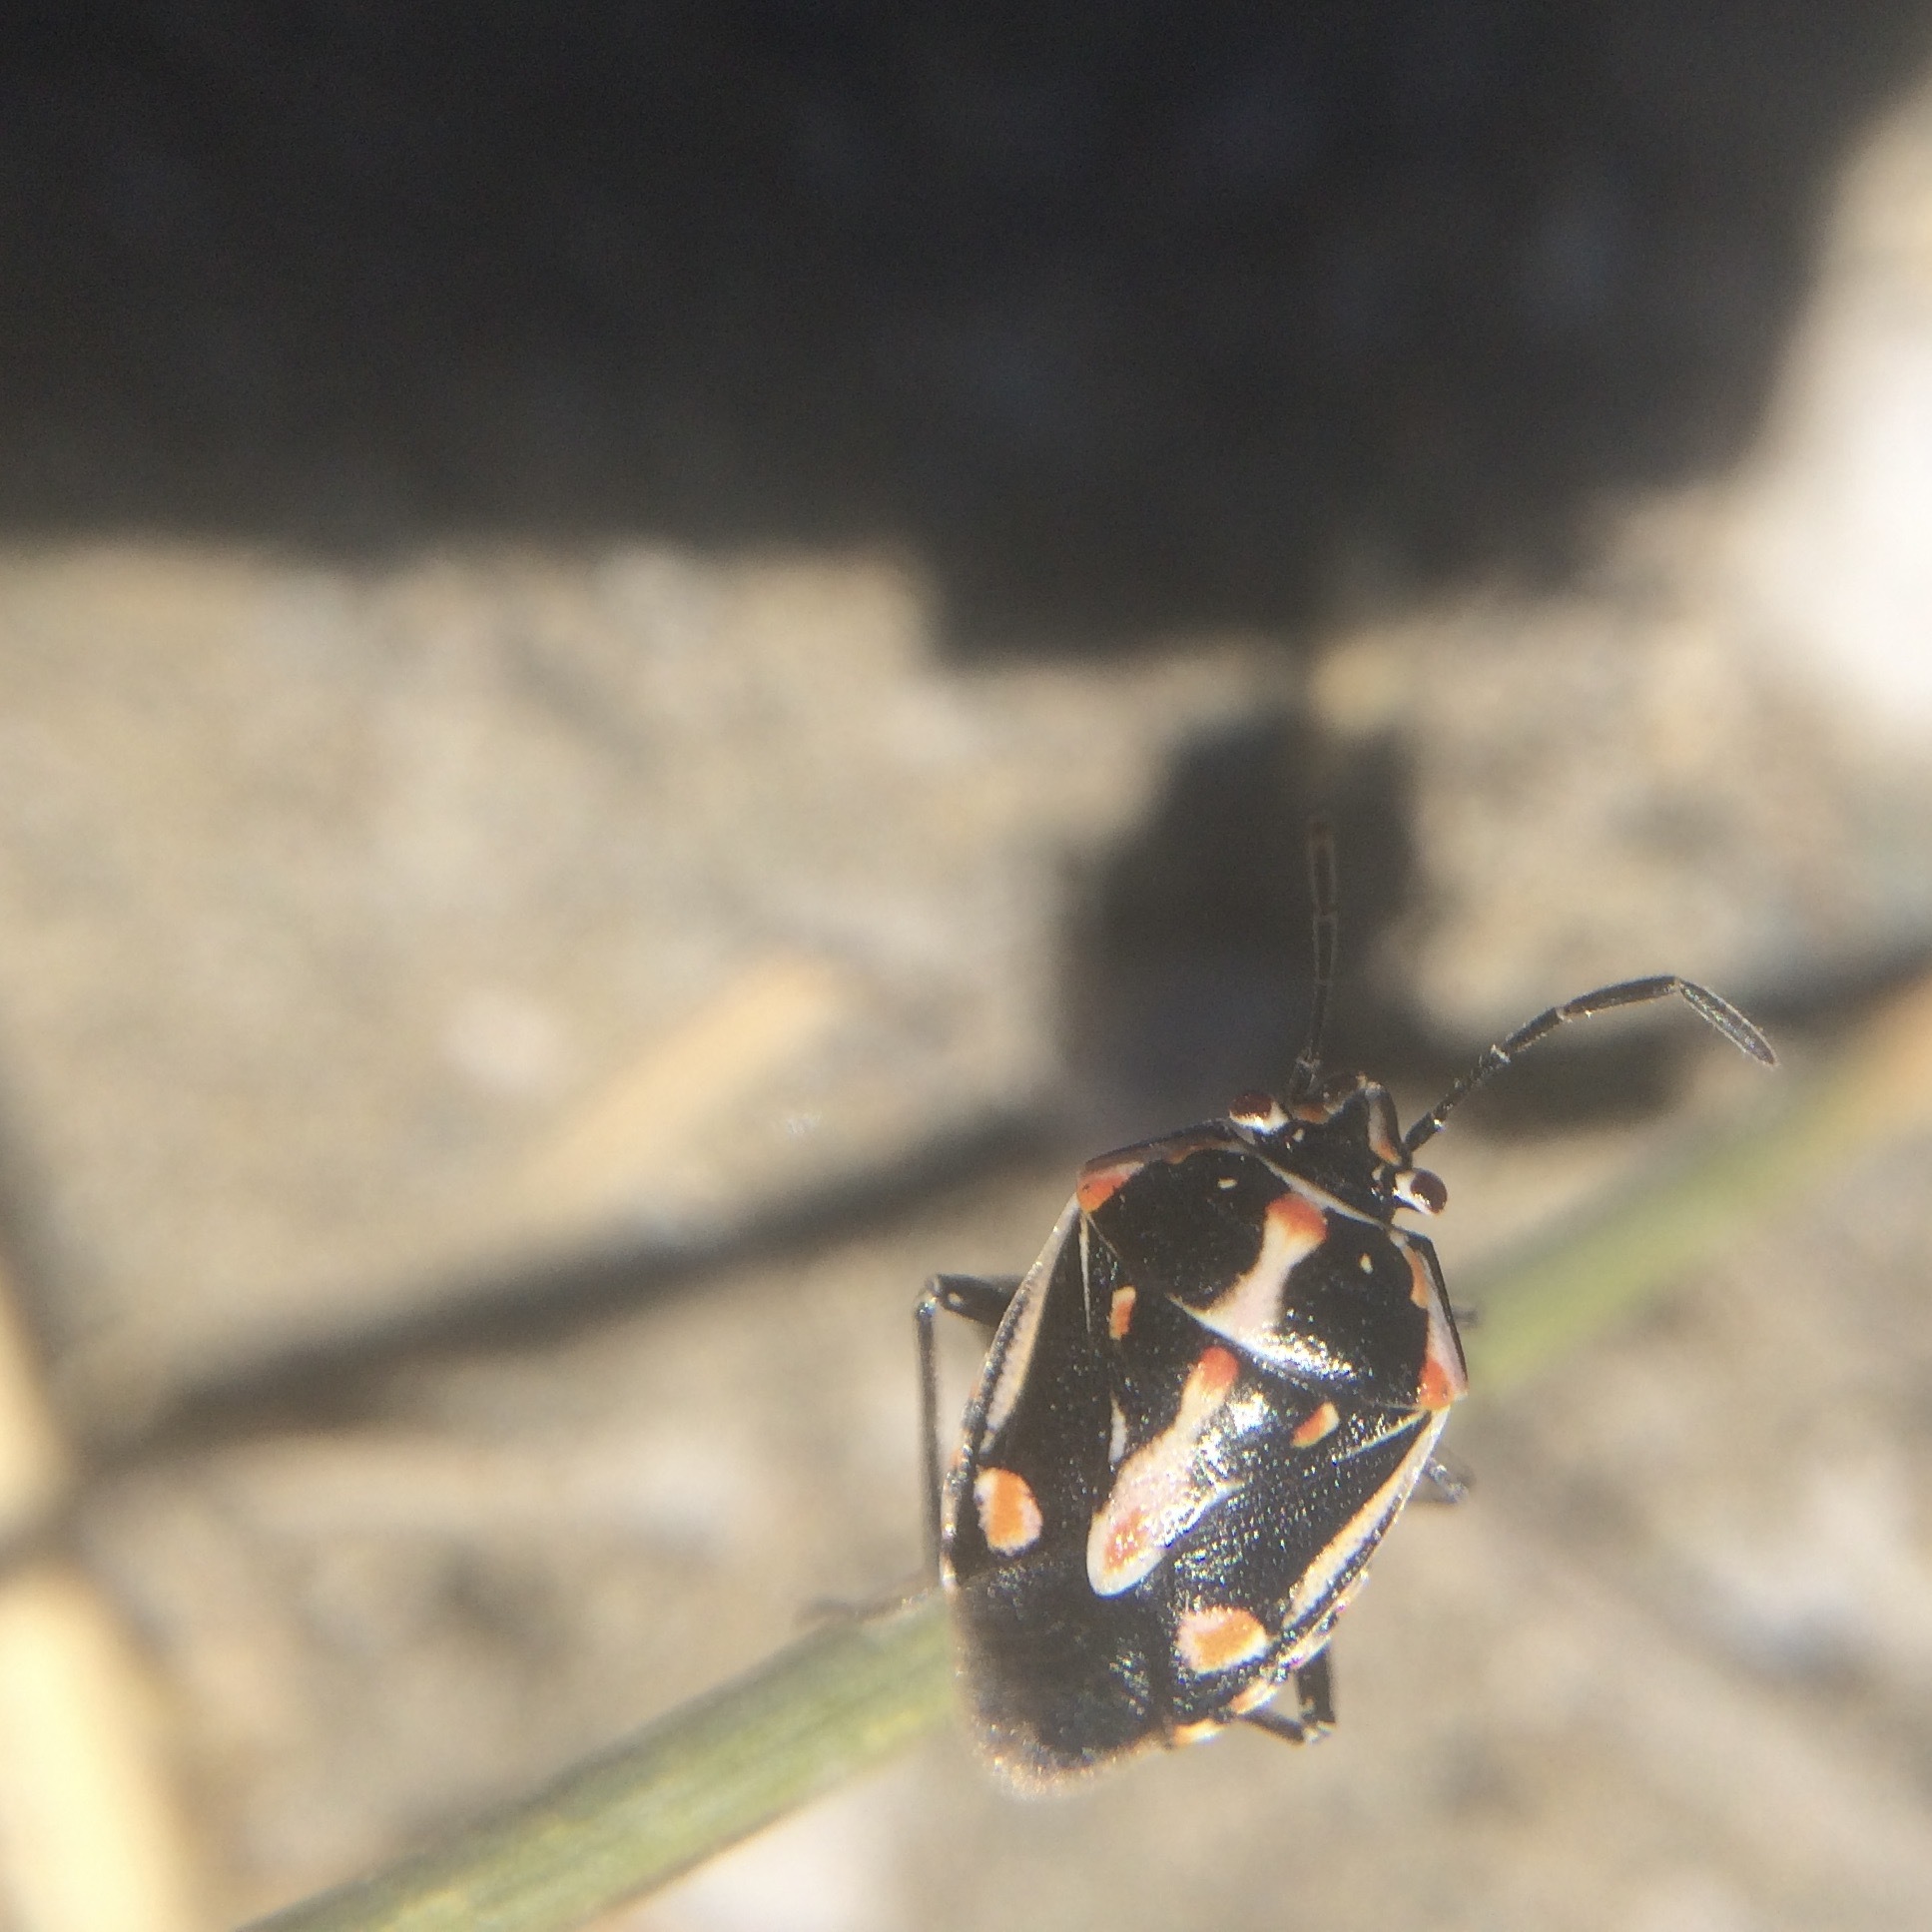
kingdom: Animalia
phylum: Arthropoda
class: Insecta
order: Hemiptera
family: Pentatomidae
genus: Bagrada
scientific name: Bagrada hilaris
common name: Bagrada bug
